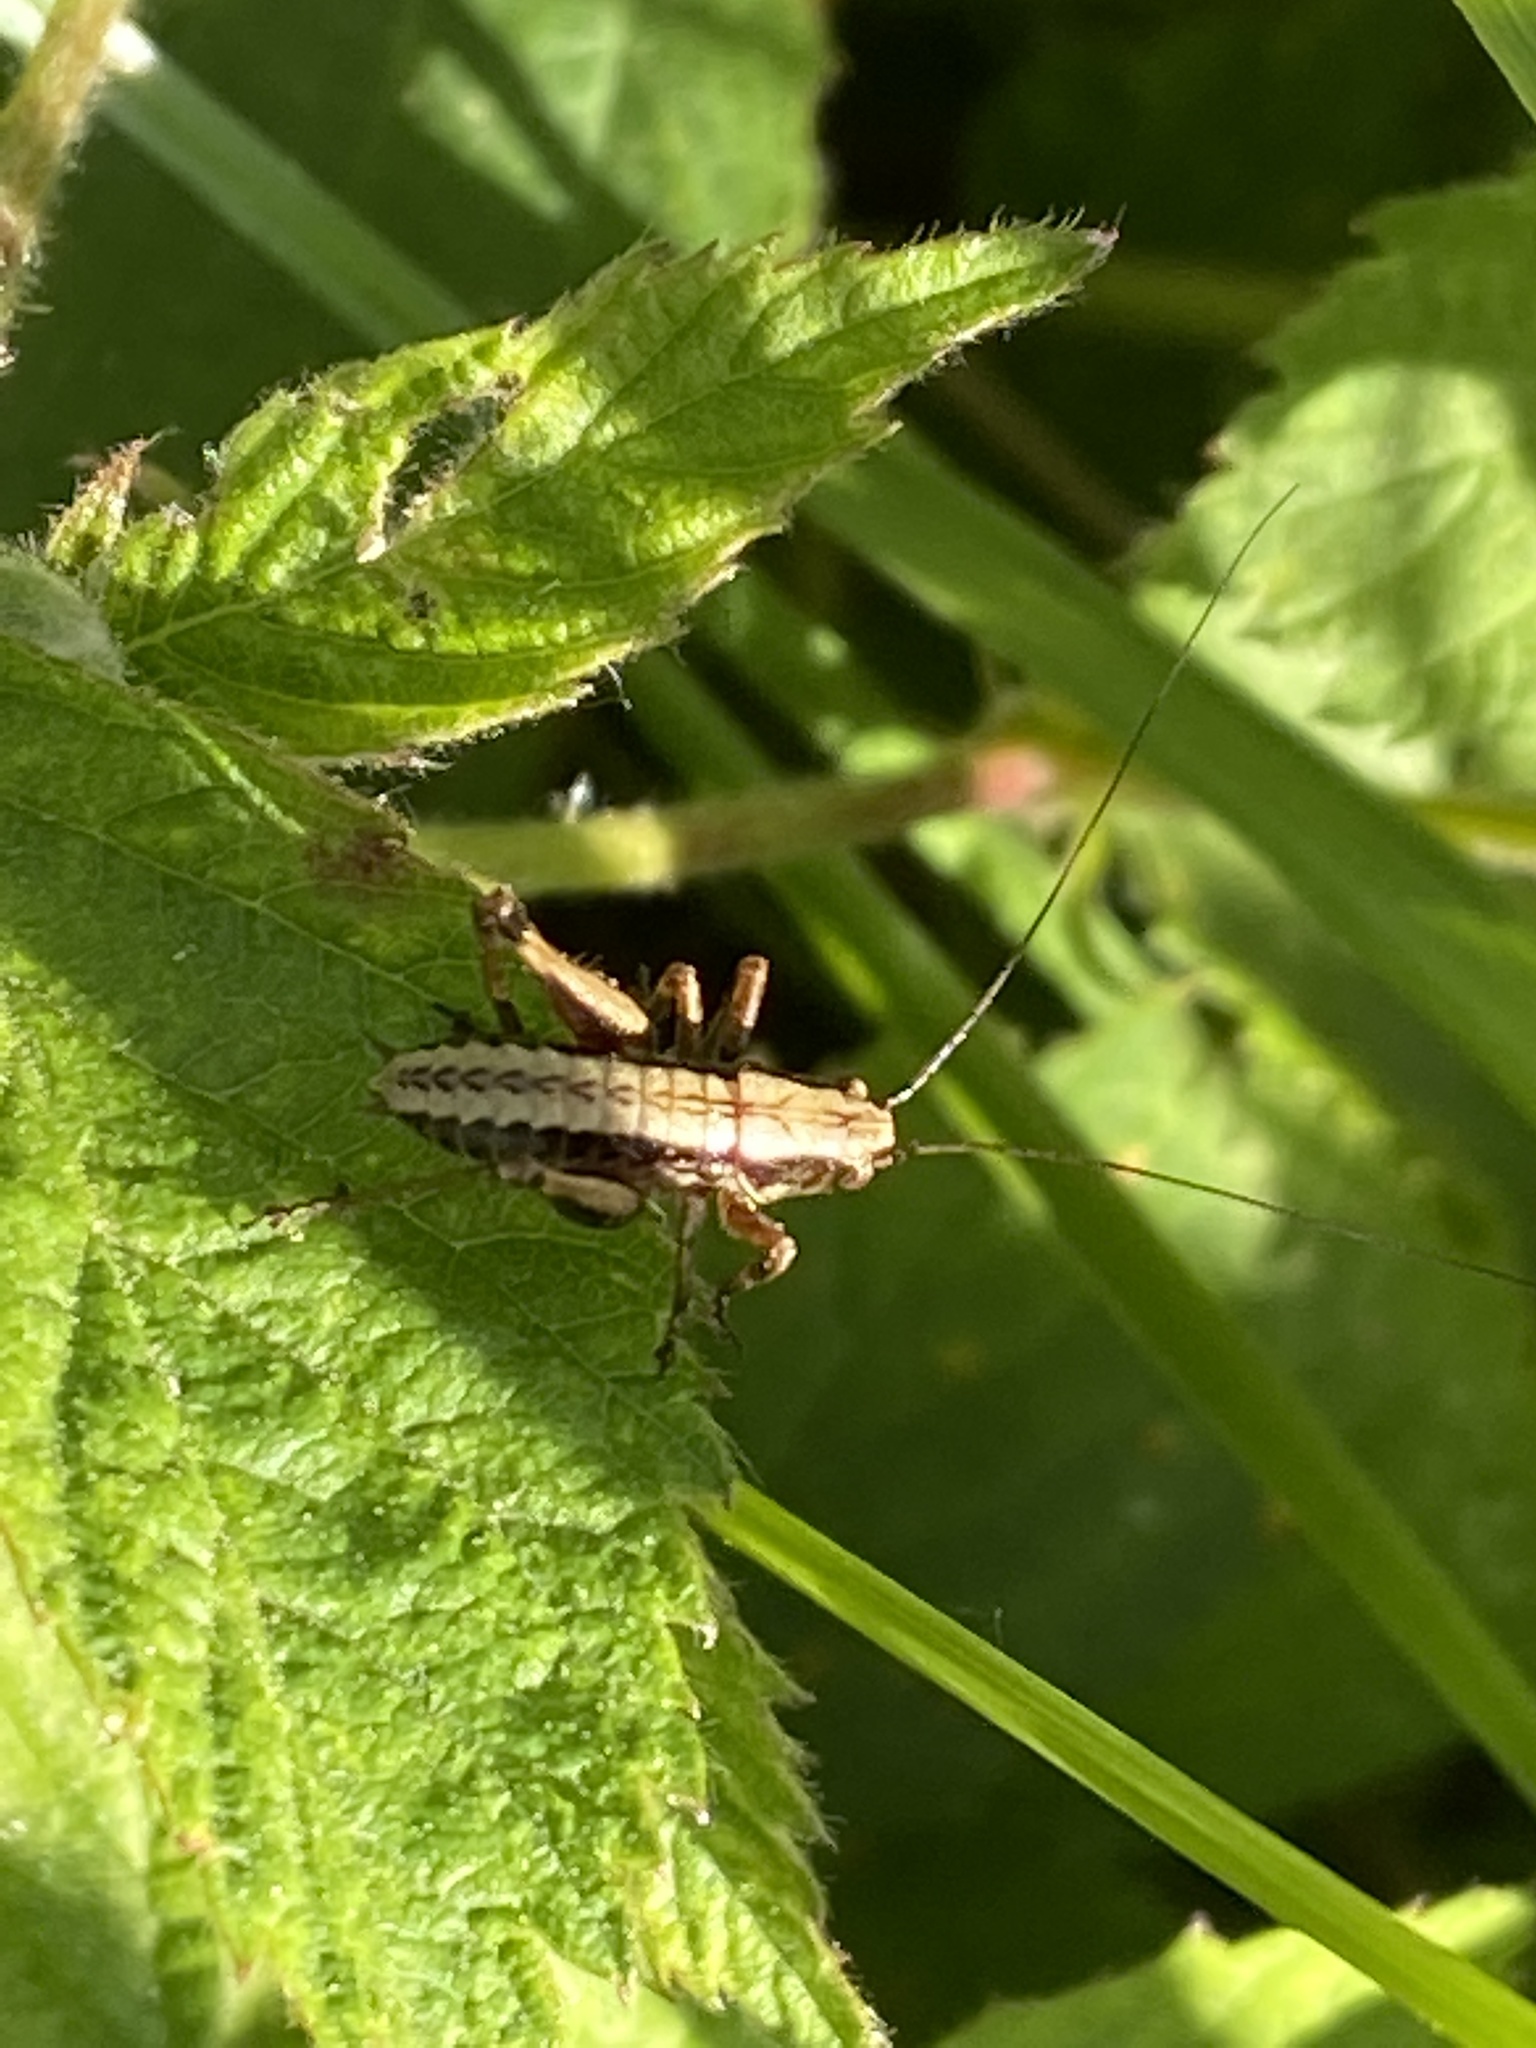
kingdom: Animalia
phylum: Arthropoda
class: Insecta
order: Orthoptera
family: Tettigoniidae
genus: Pholidoptera
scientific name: Pholidoptera griseoaptera
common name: Dark bush-cricket
